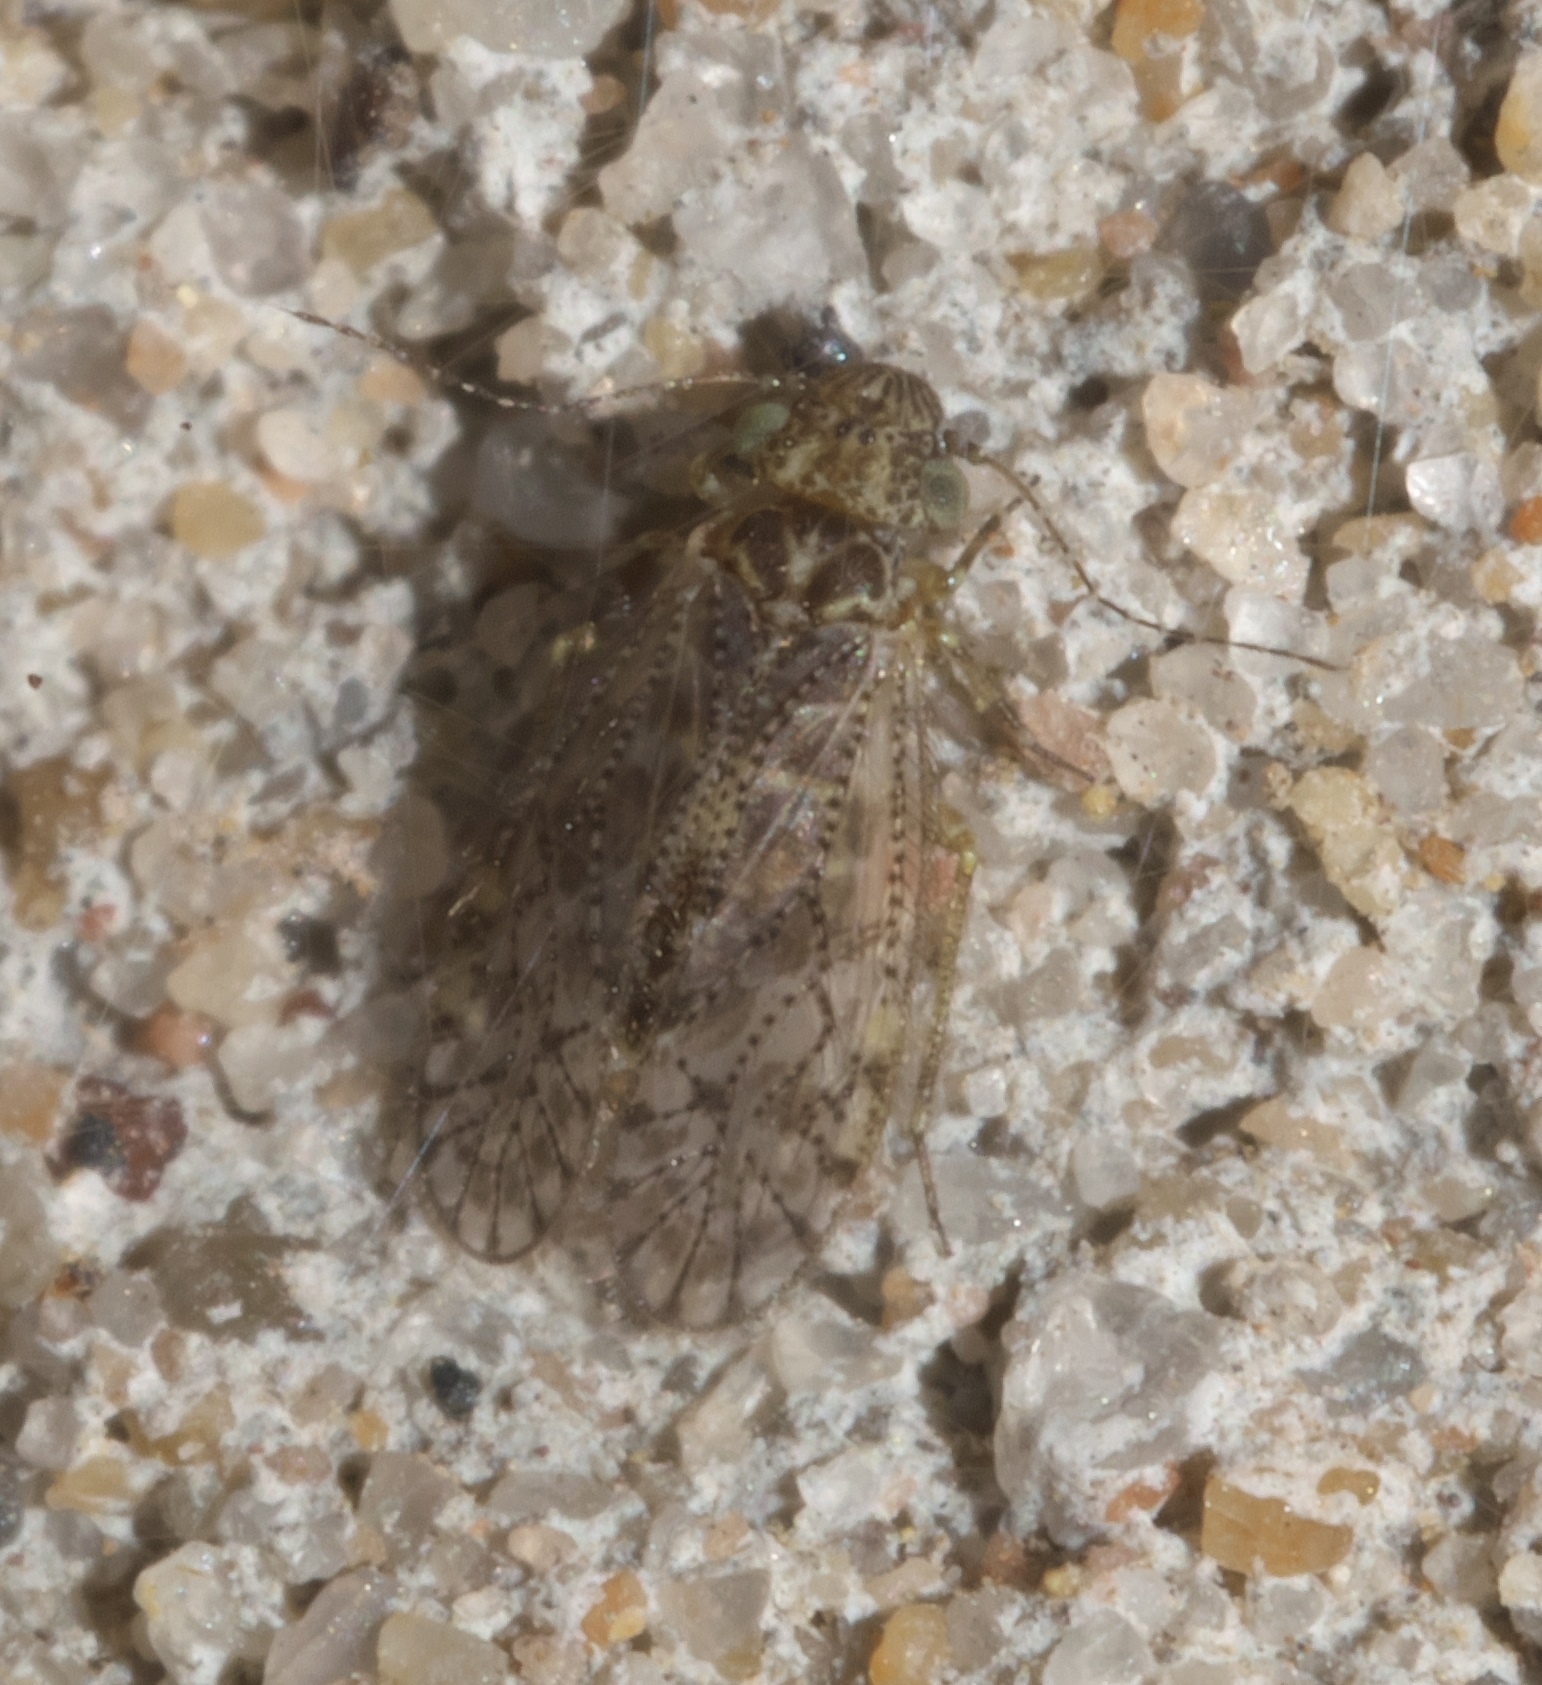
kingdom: Animalia
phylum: Arthropoda
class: Insecta
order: Psocodea
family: Philotarsidae
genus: Aaroniella
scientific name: Aaroniella badonneli
